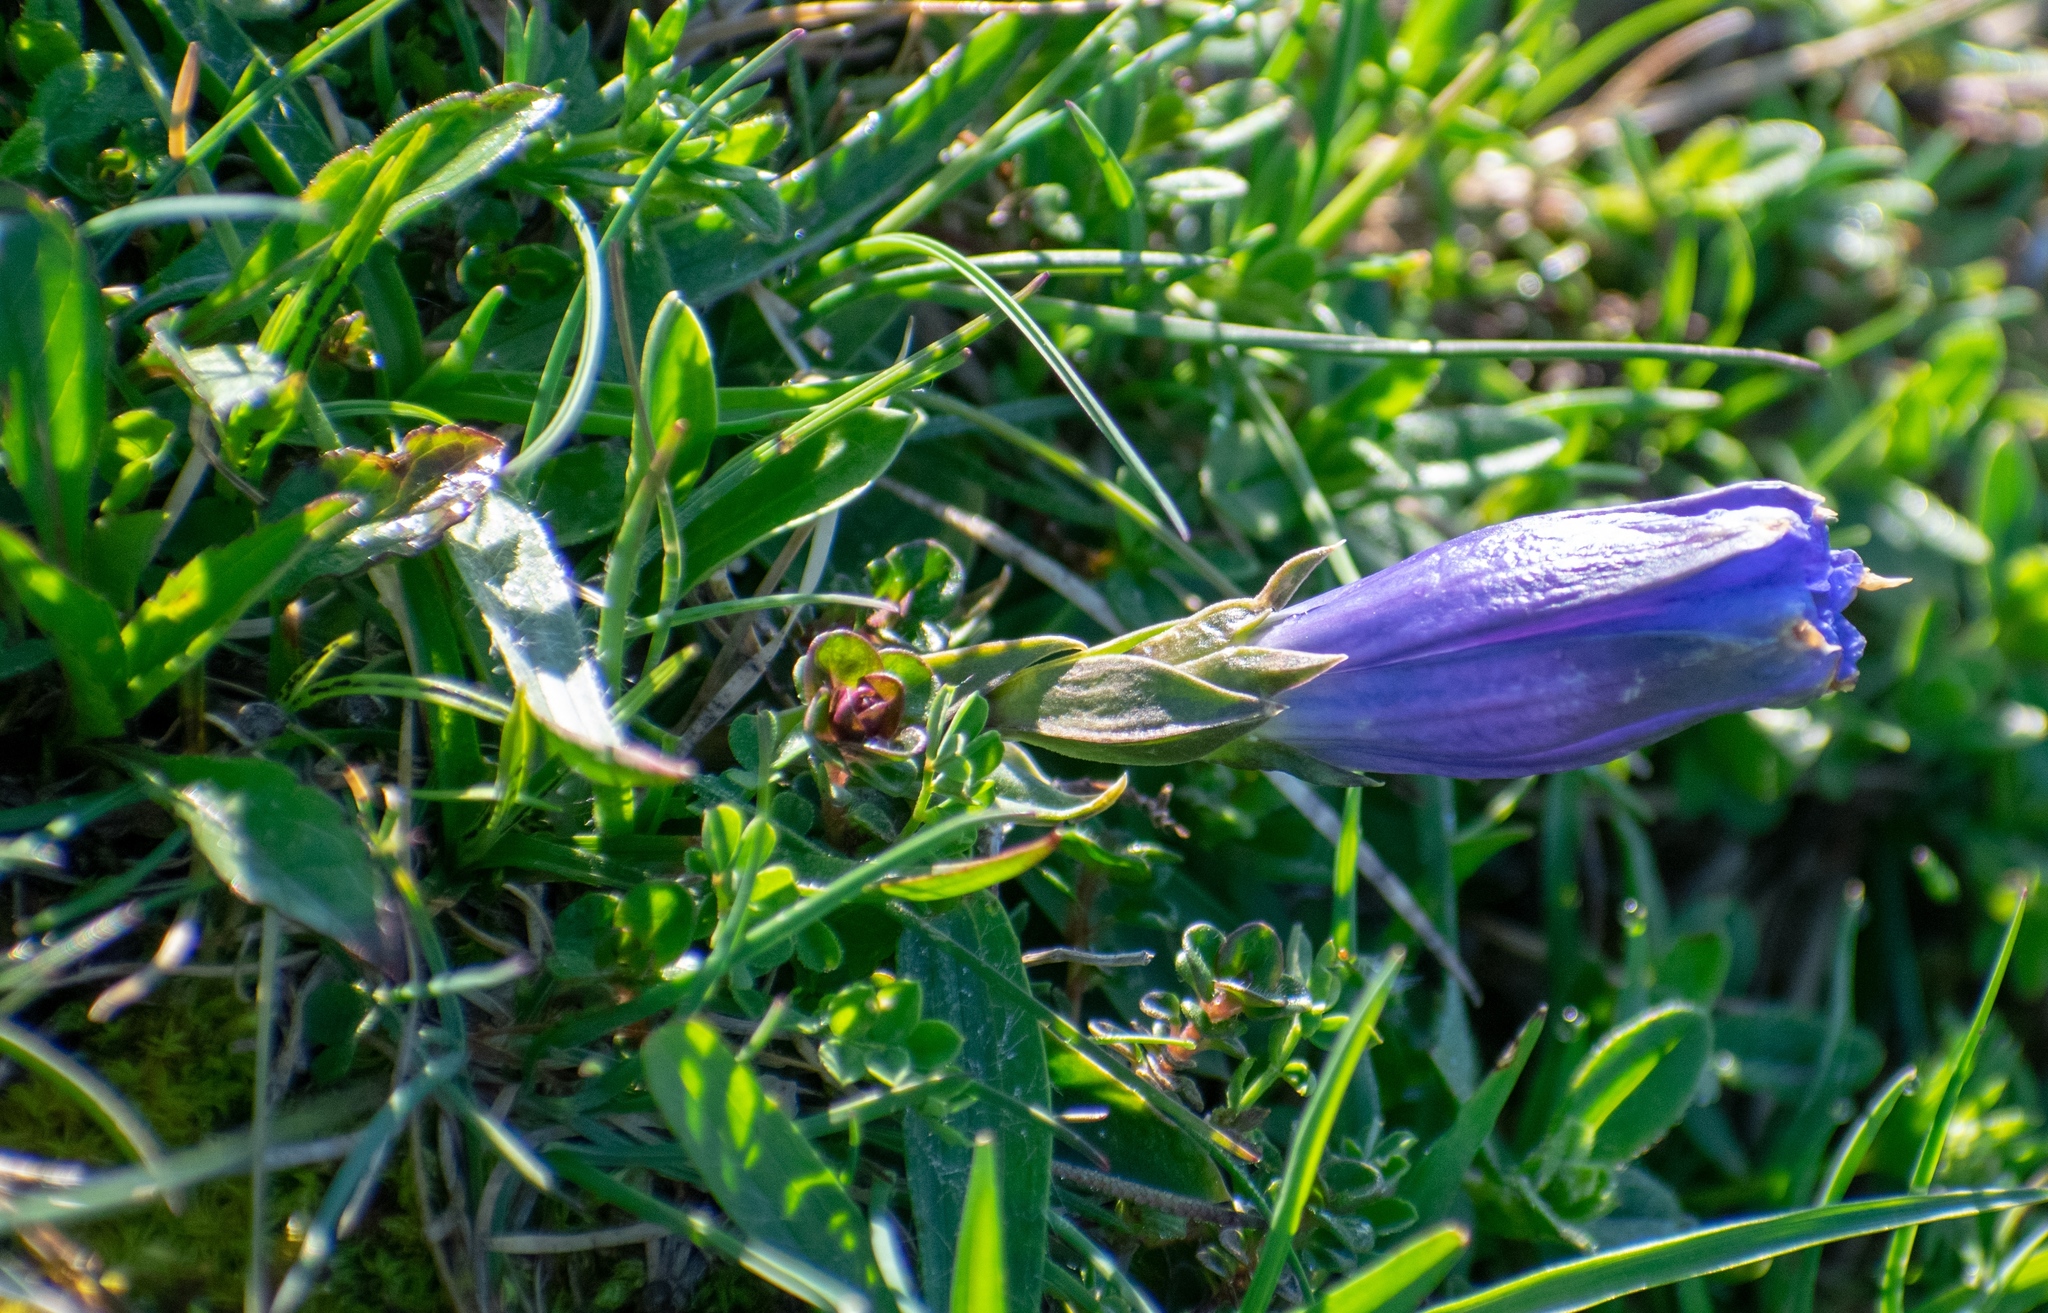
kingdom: Plantae
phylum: Tracheophyta
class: Magnoliopsida
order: Gentianales
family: Gentianaceae
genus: Gentiana
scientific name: Gentiana clusii
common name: Trumpet gentian
